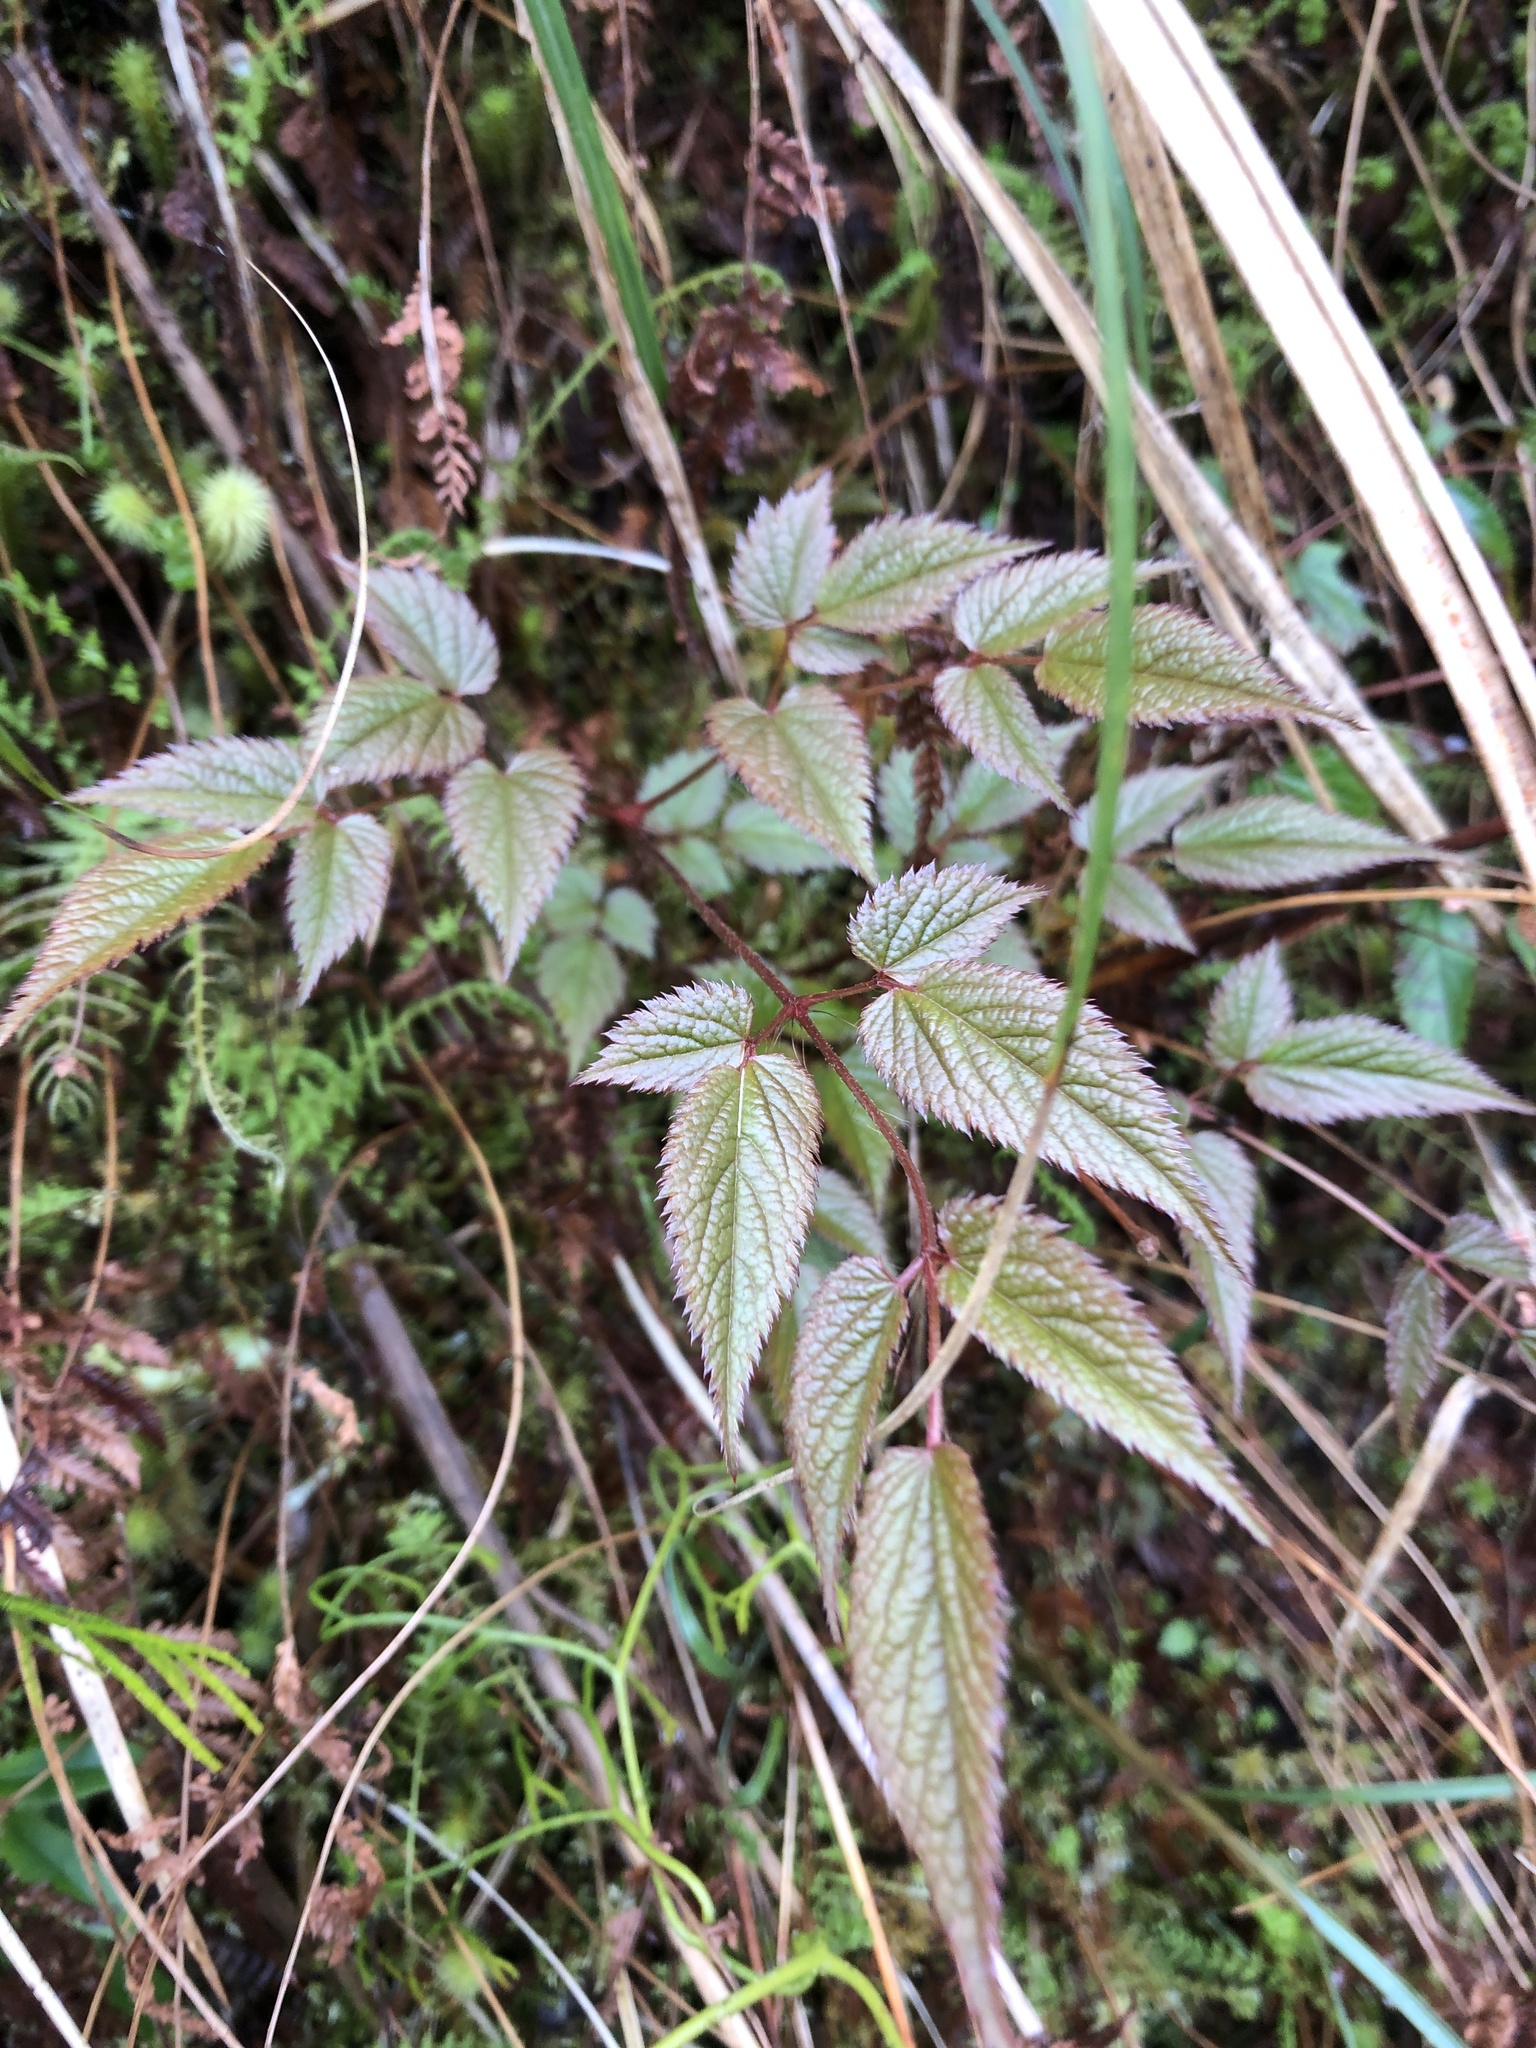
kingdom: Plantae
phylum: Tracheophyta
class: Magnoliopsida
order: Saxifragales
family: Saxifragaceae
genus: Astilbe
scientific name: Astilbe longicarpa
